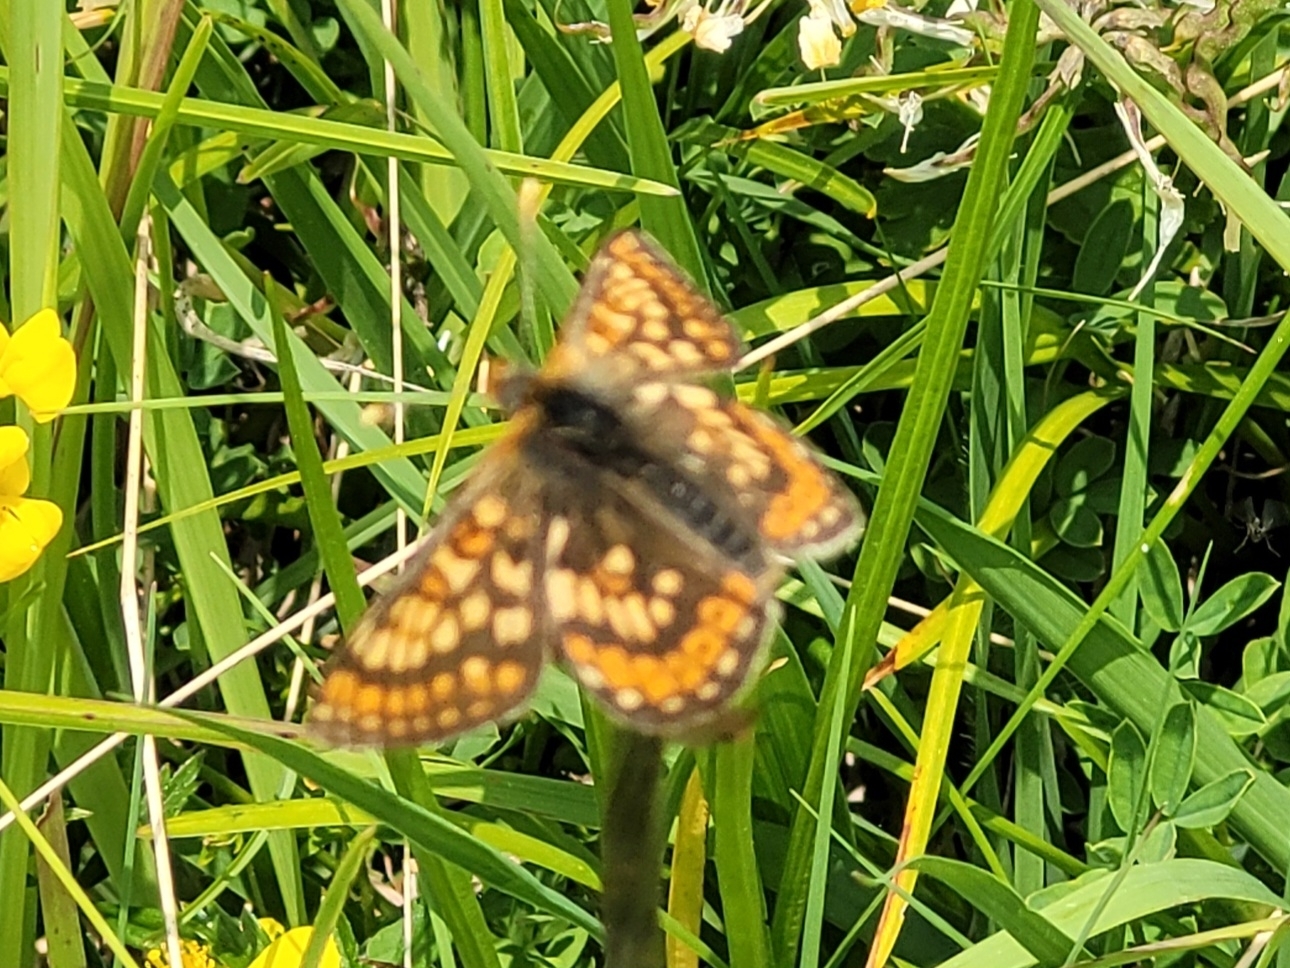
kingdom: Animalia
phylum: Arthropoda
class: Insecta
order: Lepidoptera
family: Nymphalidae
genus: Euphydryas
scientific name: Euphydryas aurinia
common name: Marsh fritillary
